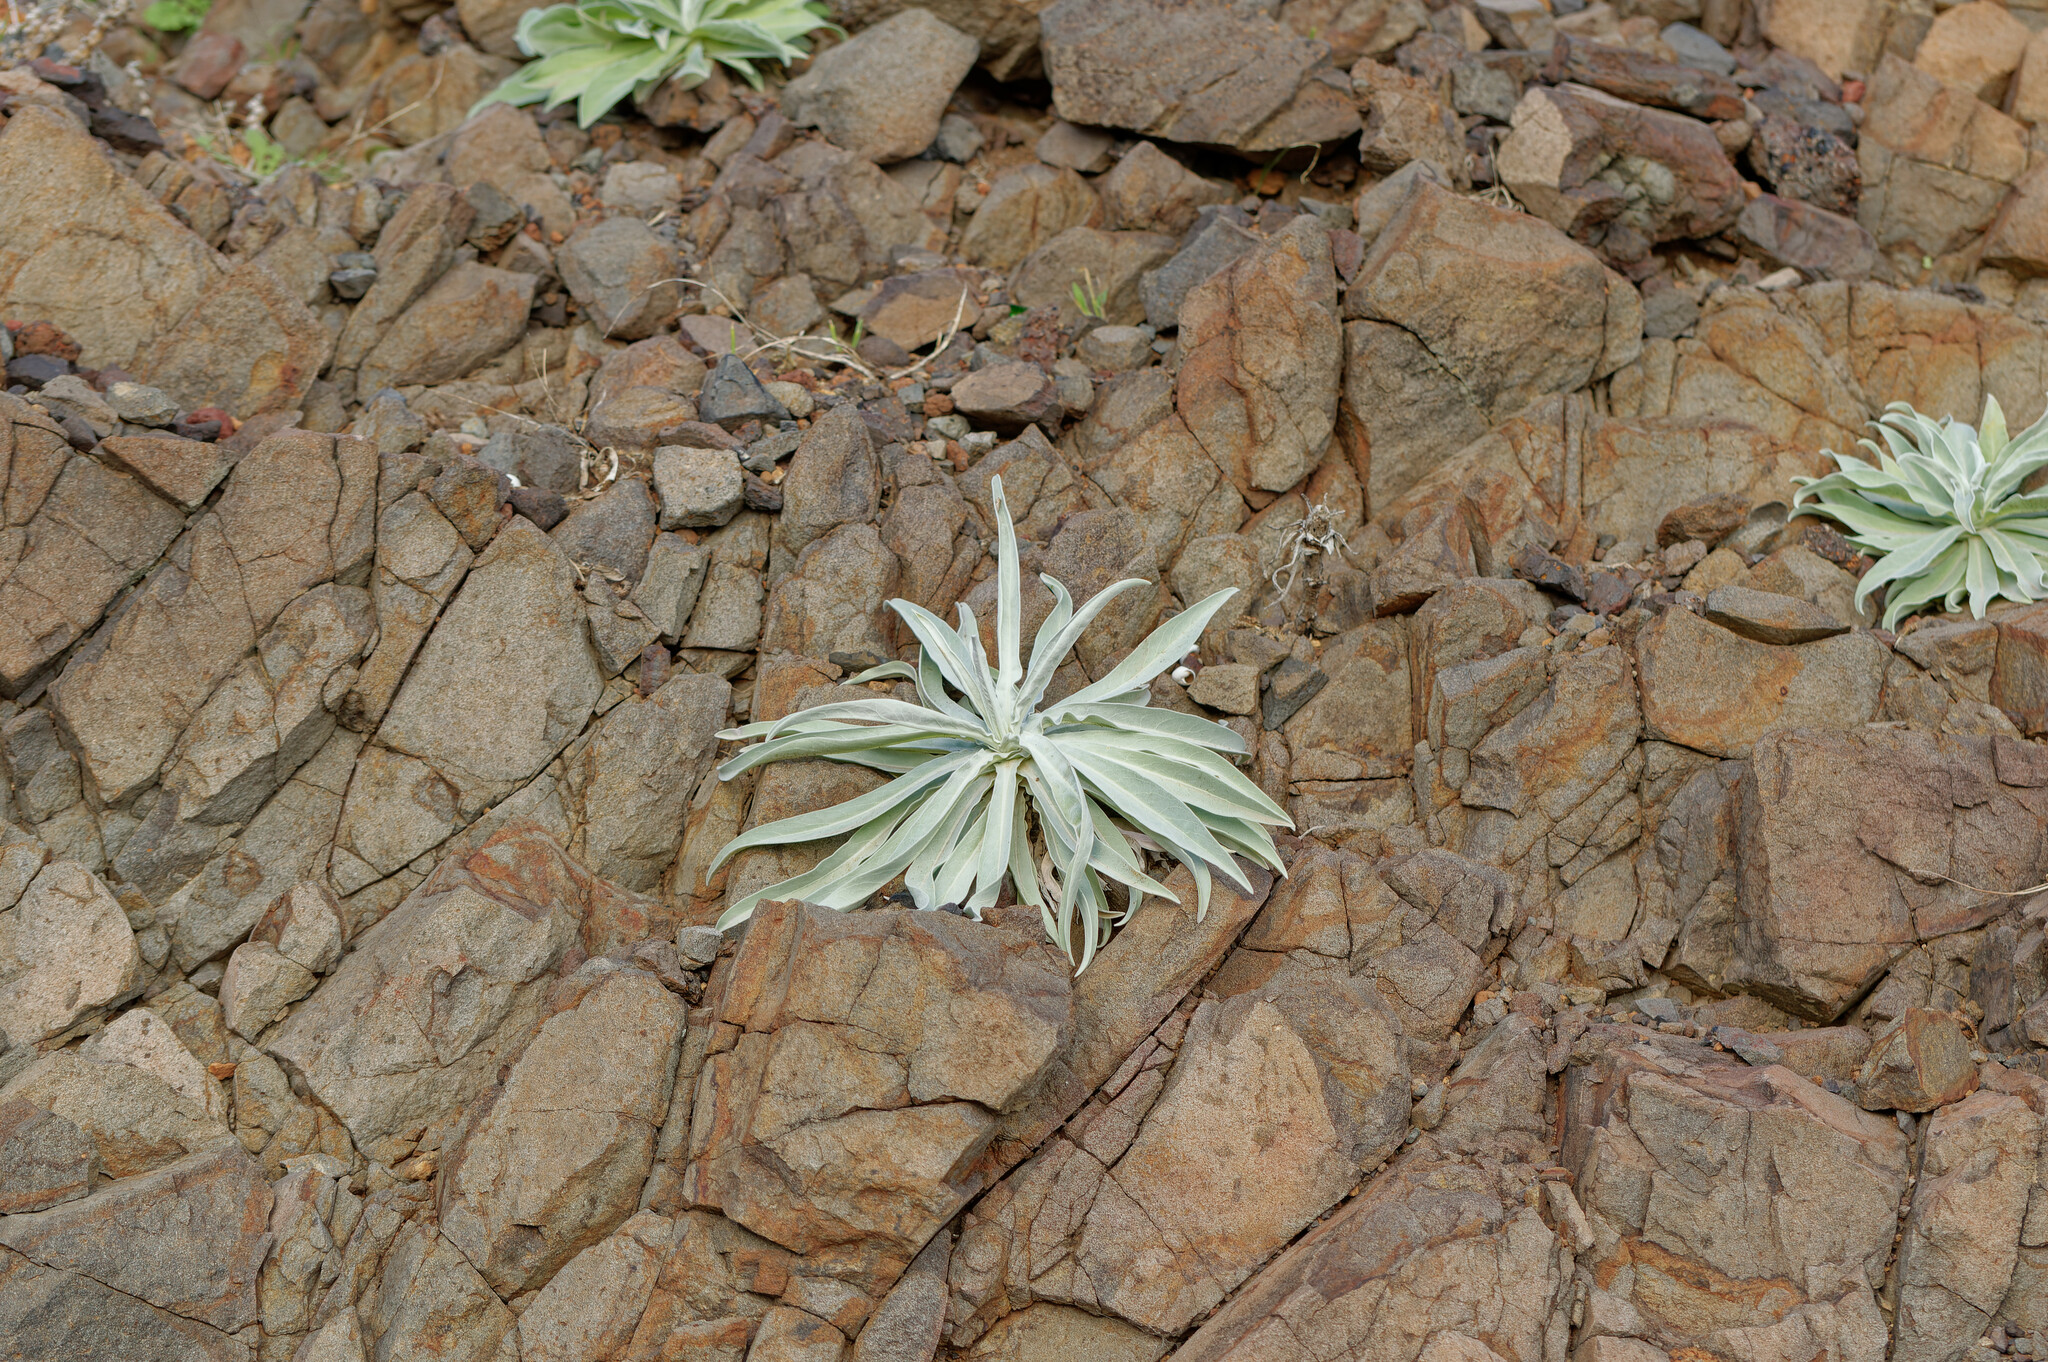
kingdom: Plantae
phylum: Tracheophyta
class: Magnoliopsida
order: Brassicales
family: Brassicaceae
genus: Matthiola
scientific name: Matthiola maderensis
